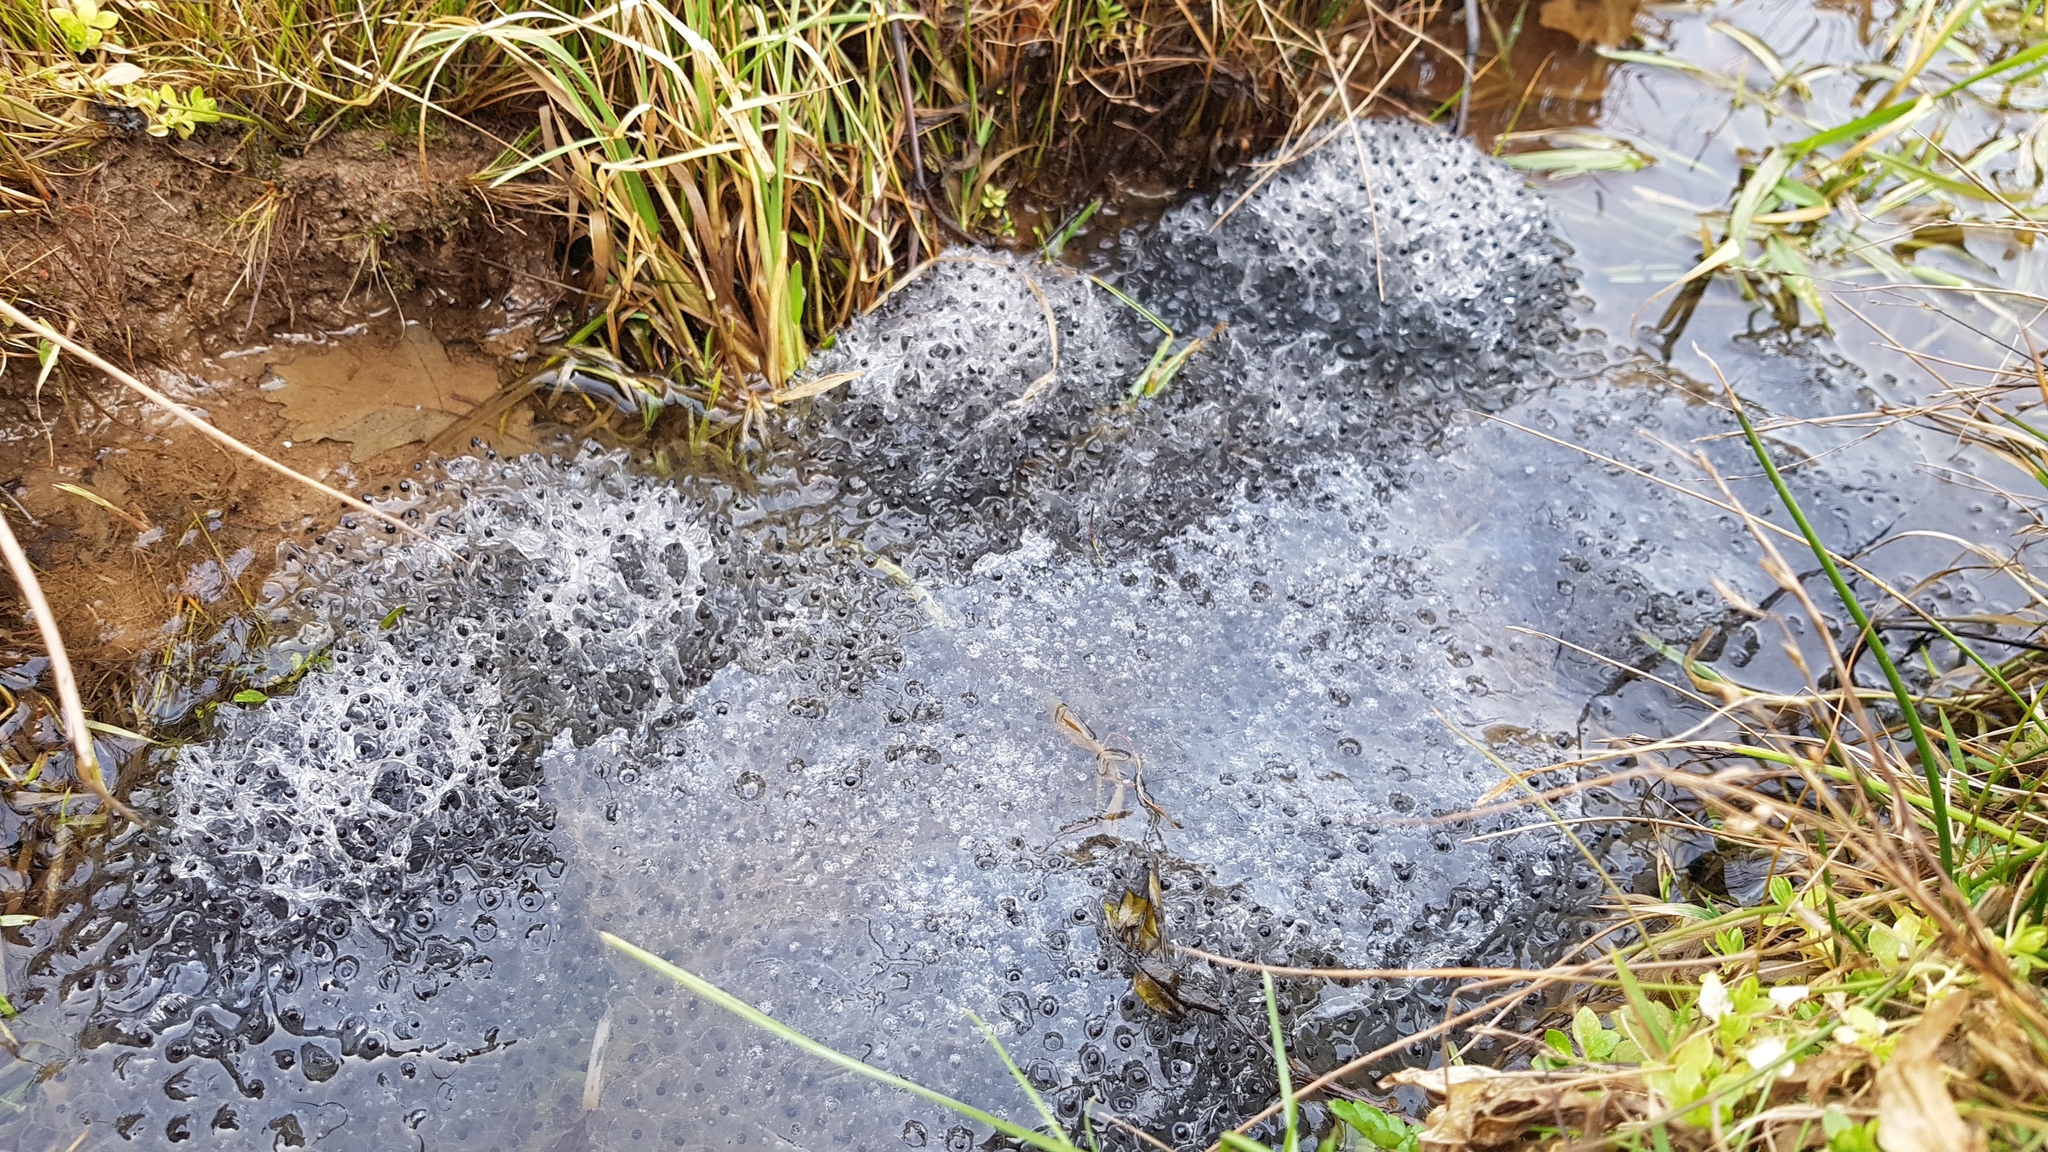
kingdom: Animalia
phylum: Chordata
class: Amphibia
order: Anura
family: Ranidae
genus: Rana
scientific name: Rana temporaria
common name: Common frog
